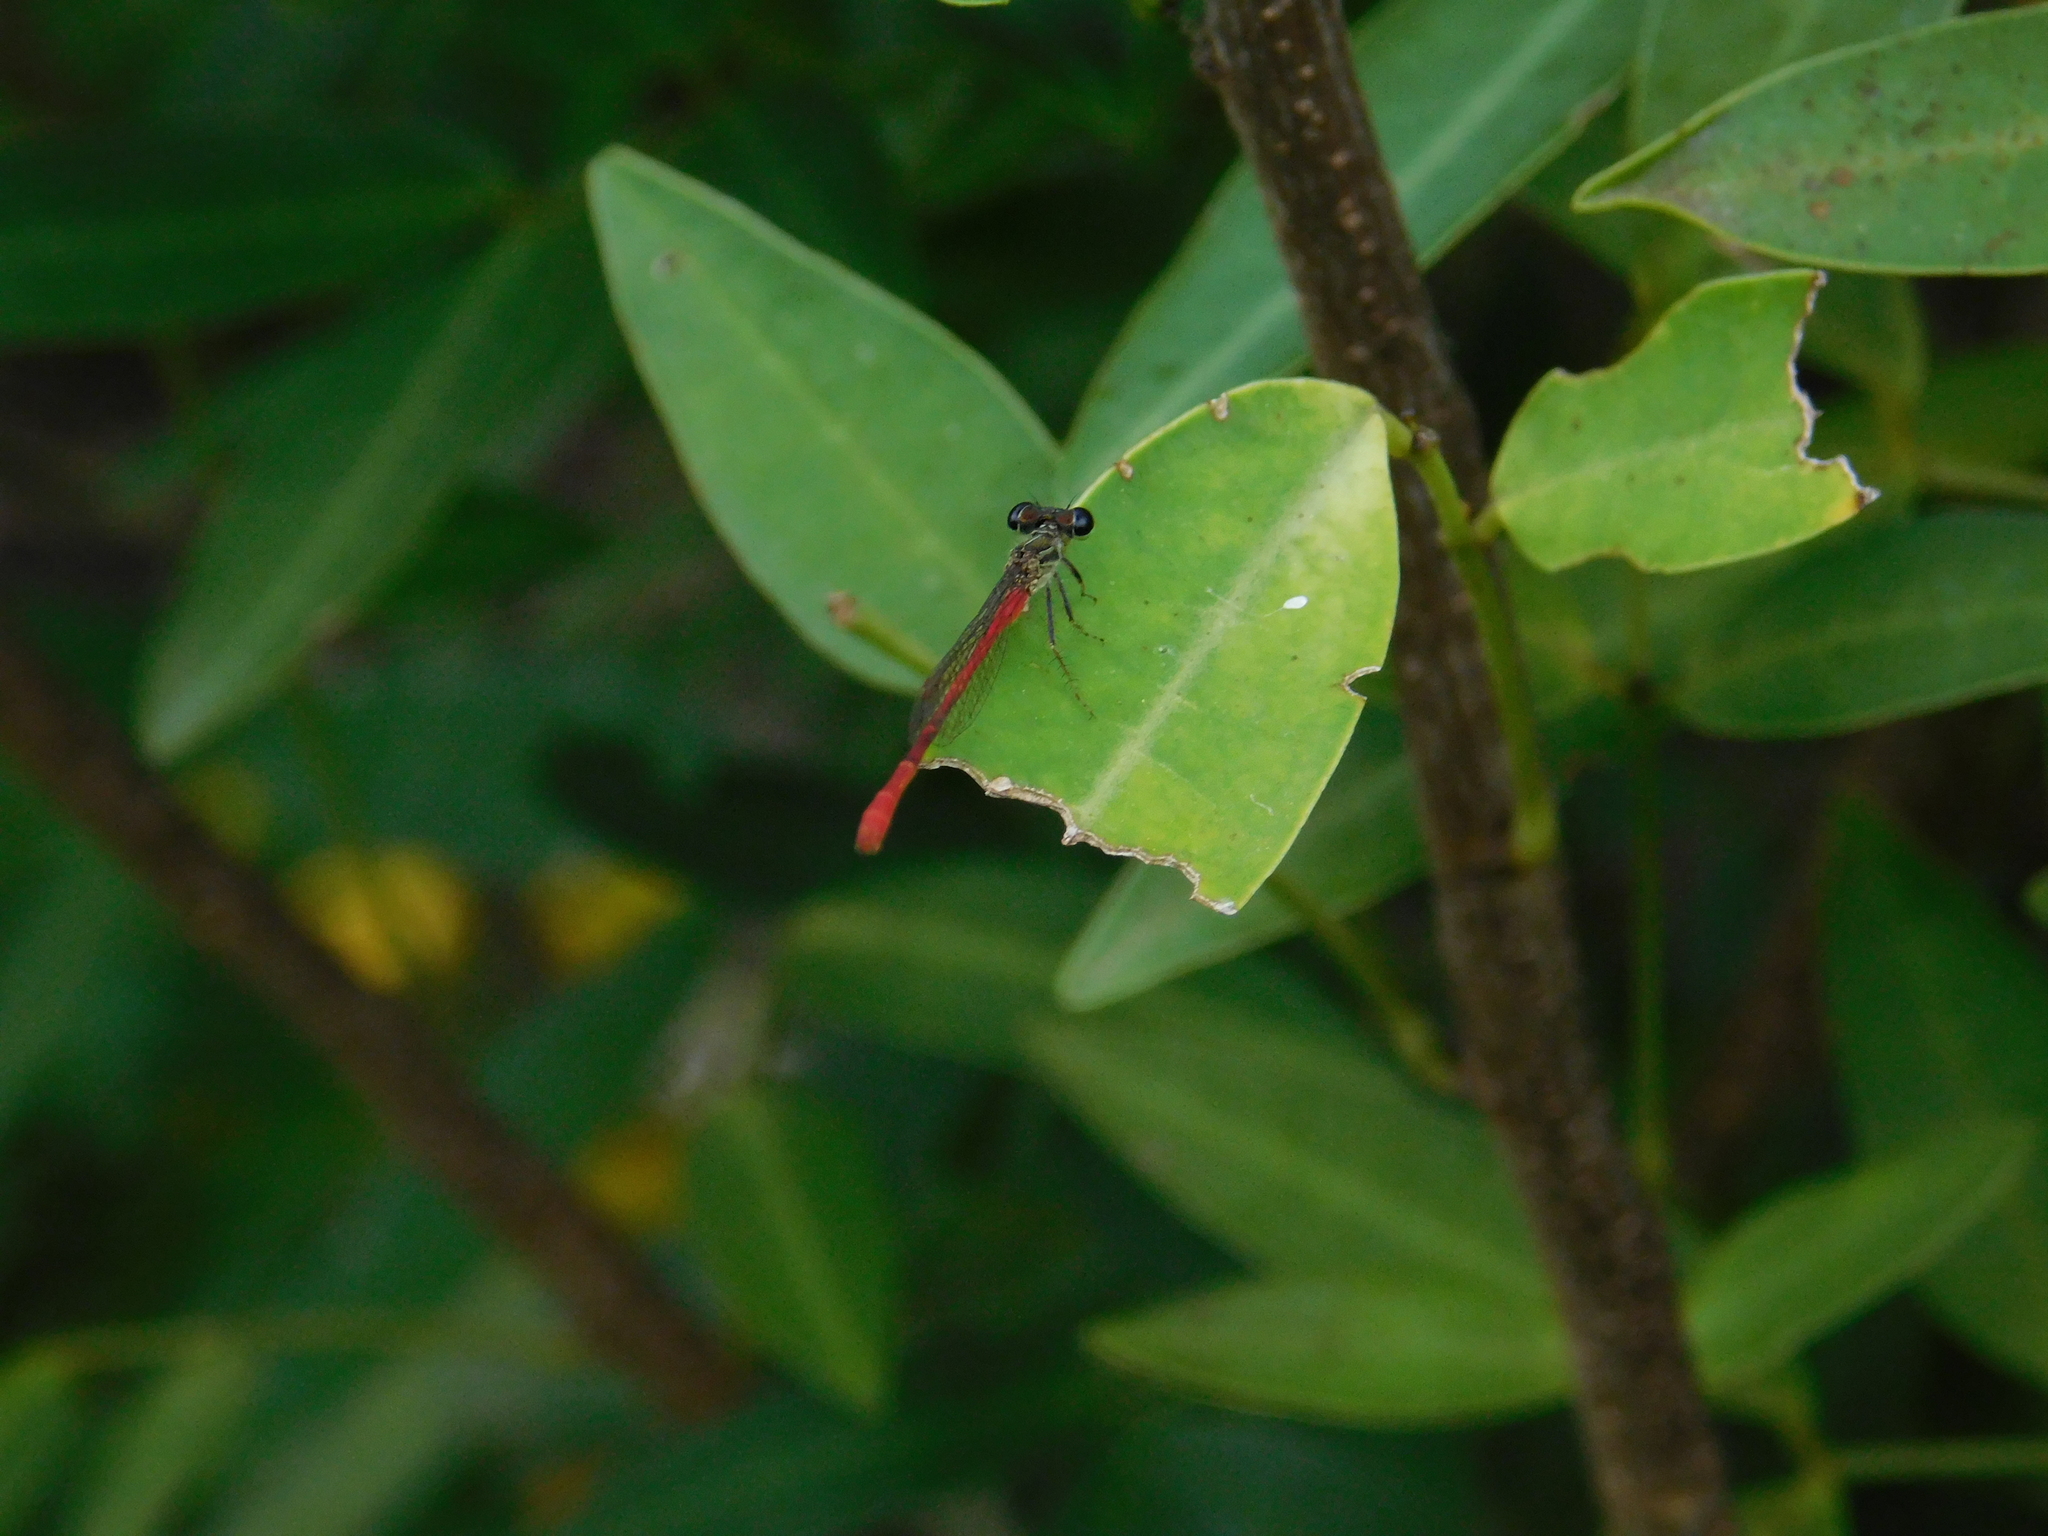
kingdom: Animalia
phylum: Arthropoda
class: Insecta
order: Odonata
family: Coenagrionidae
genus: Telebasis
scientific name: Telebasis willinki
